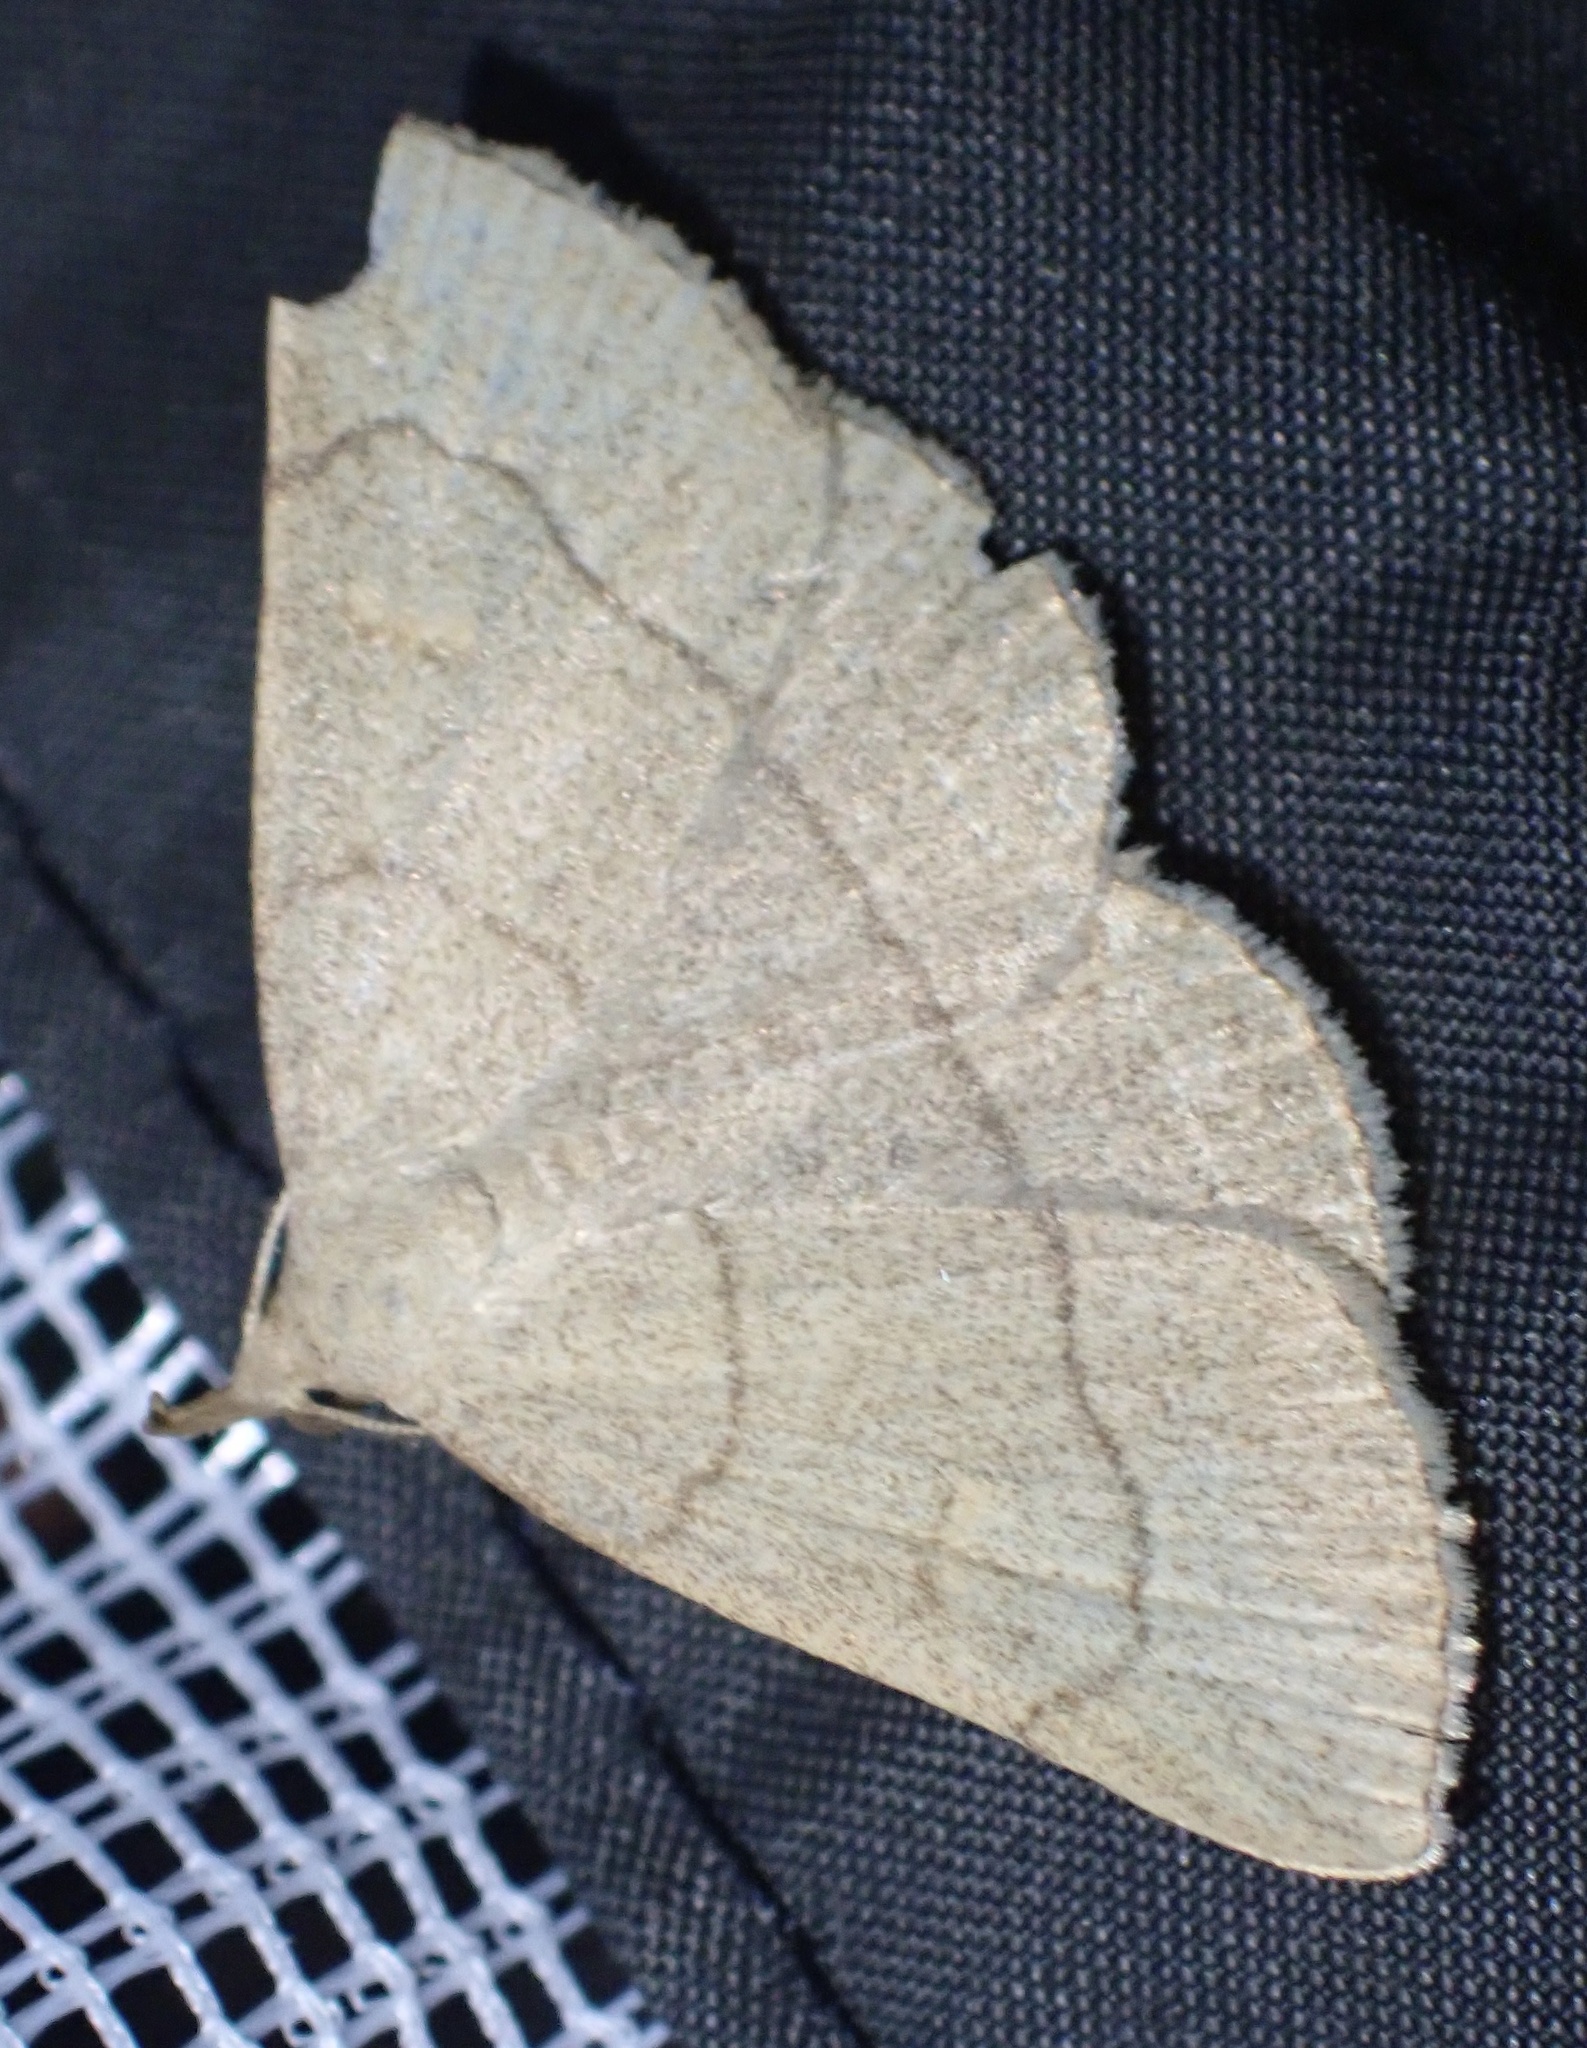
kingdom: Animalia
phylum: Arthropoda
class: Insecta
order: Lepidoptera
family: Erebidae
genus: Paracolax
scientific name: Paracolax tristalis
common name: Clay fan-foot
